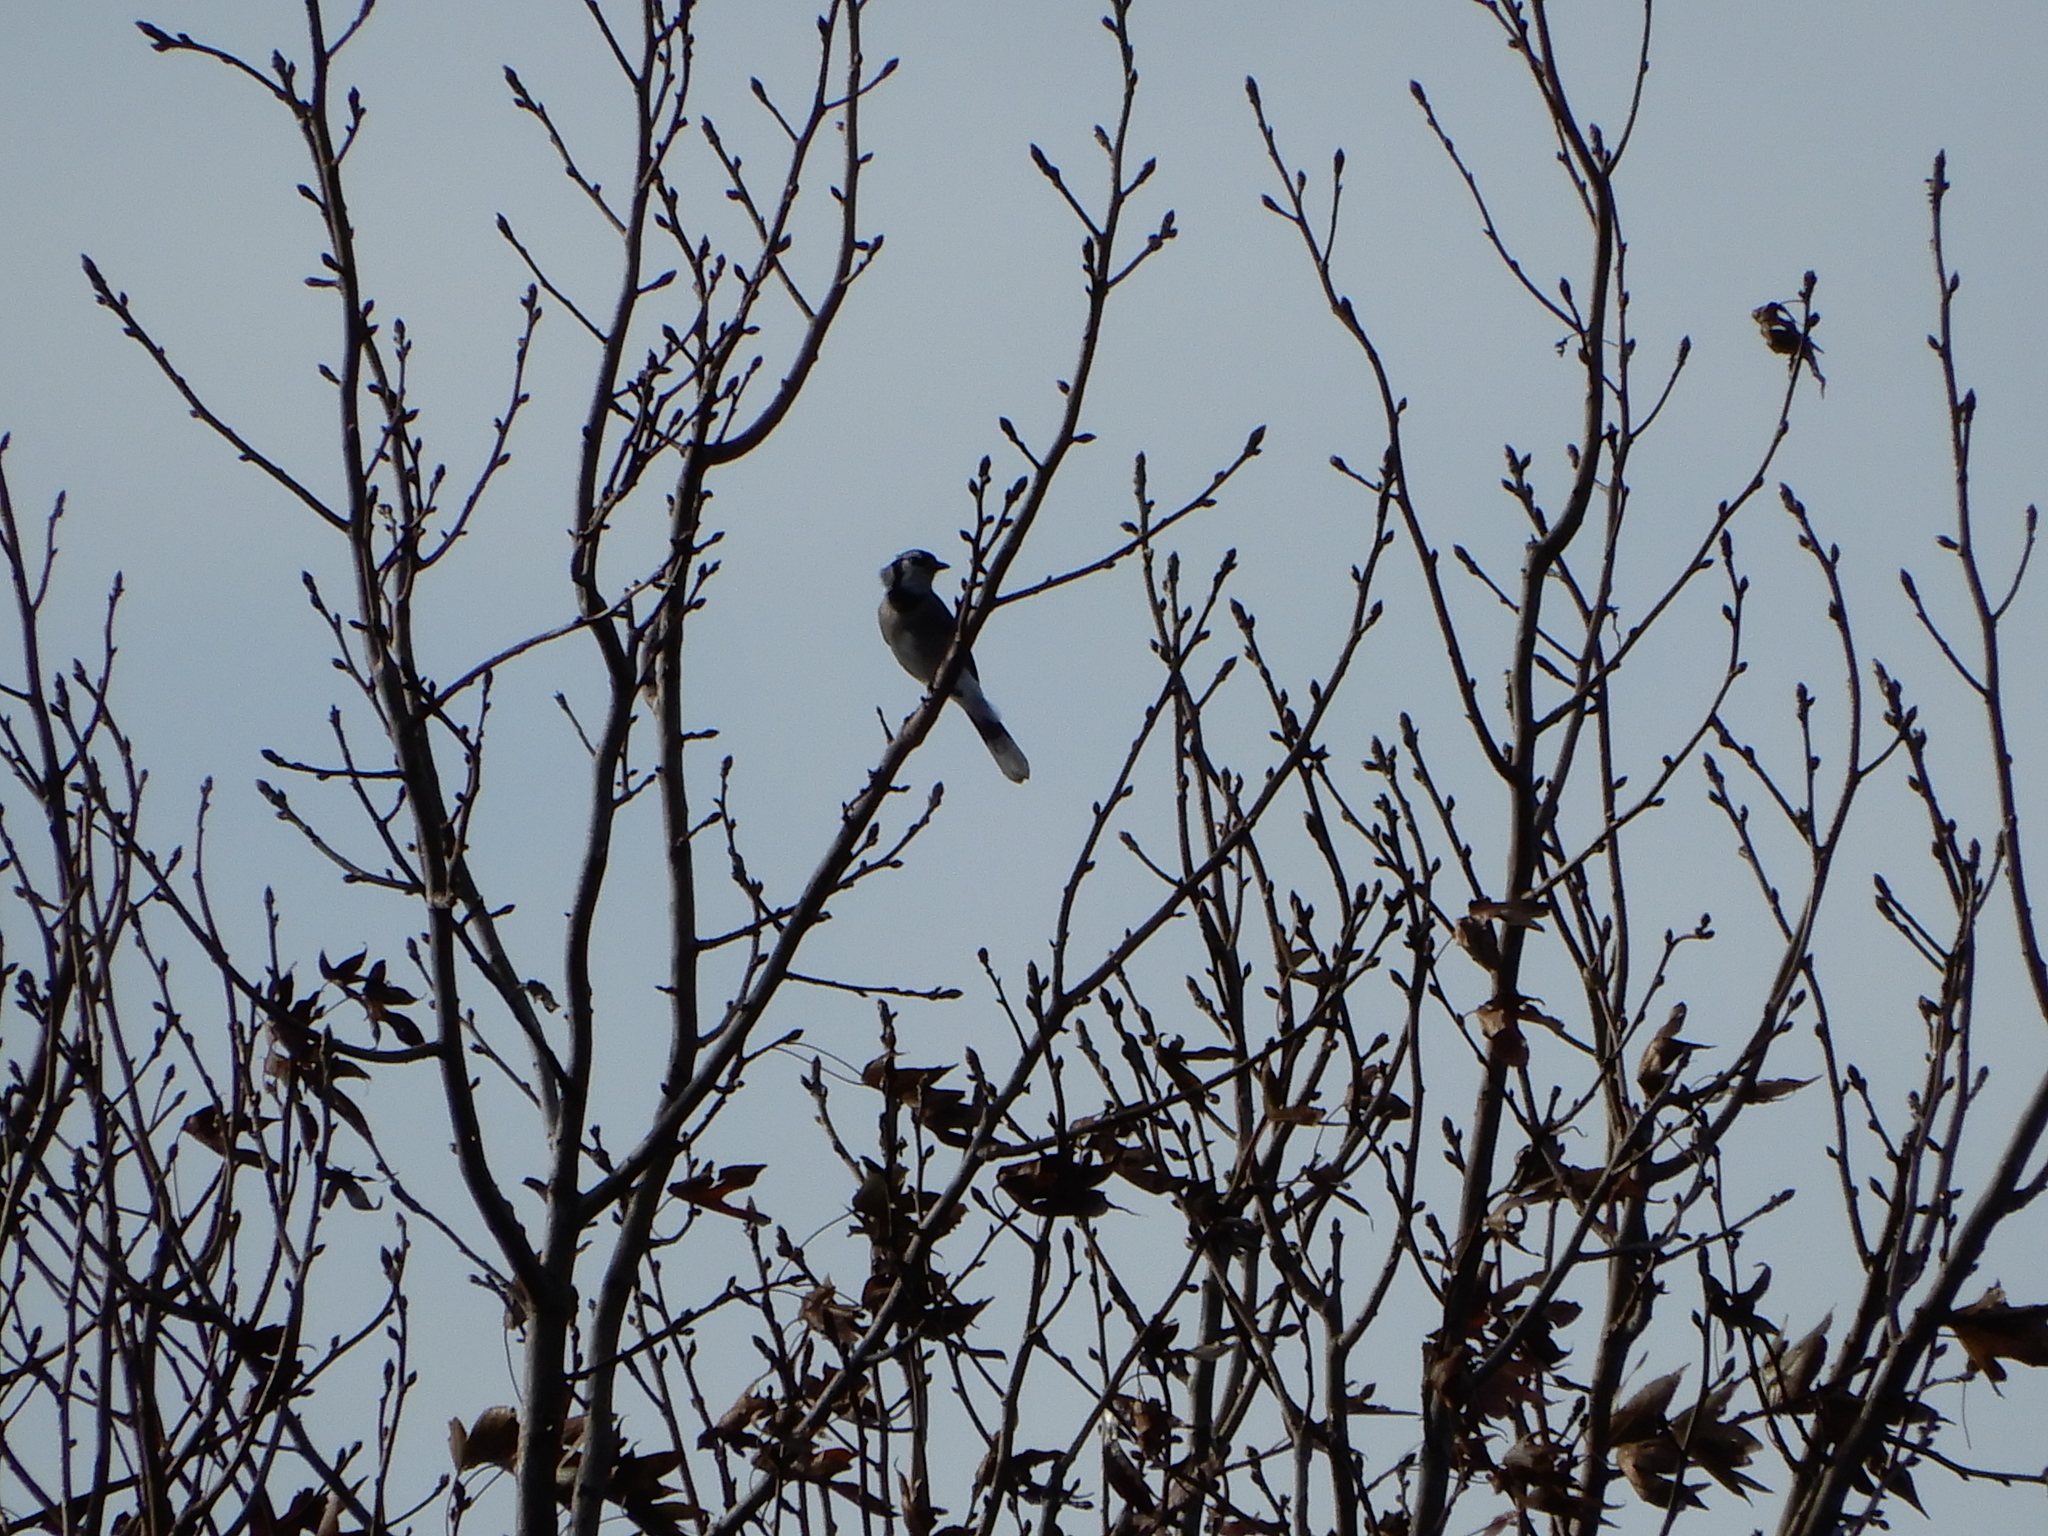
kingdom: Animalia
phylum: Chordata
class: Aves
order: Passeriformes
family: Corvidae
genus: Cyanocitta
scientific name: Cyanocitta cristata
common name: Blue jay
